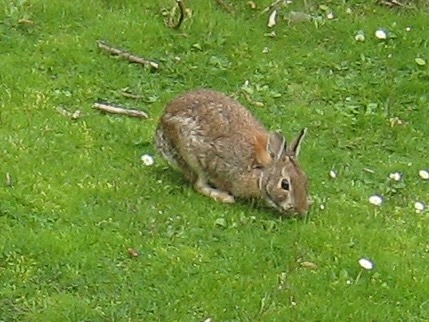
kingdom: Animalia
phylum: Chordata
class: Mammalia
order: Lagomorpha
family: Leporidae
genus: Sylvilagus
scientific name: Sylvilagus floridanus
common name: Eastern cottontail
